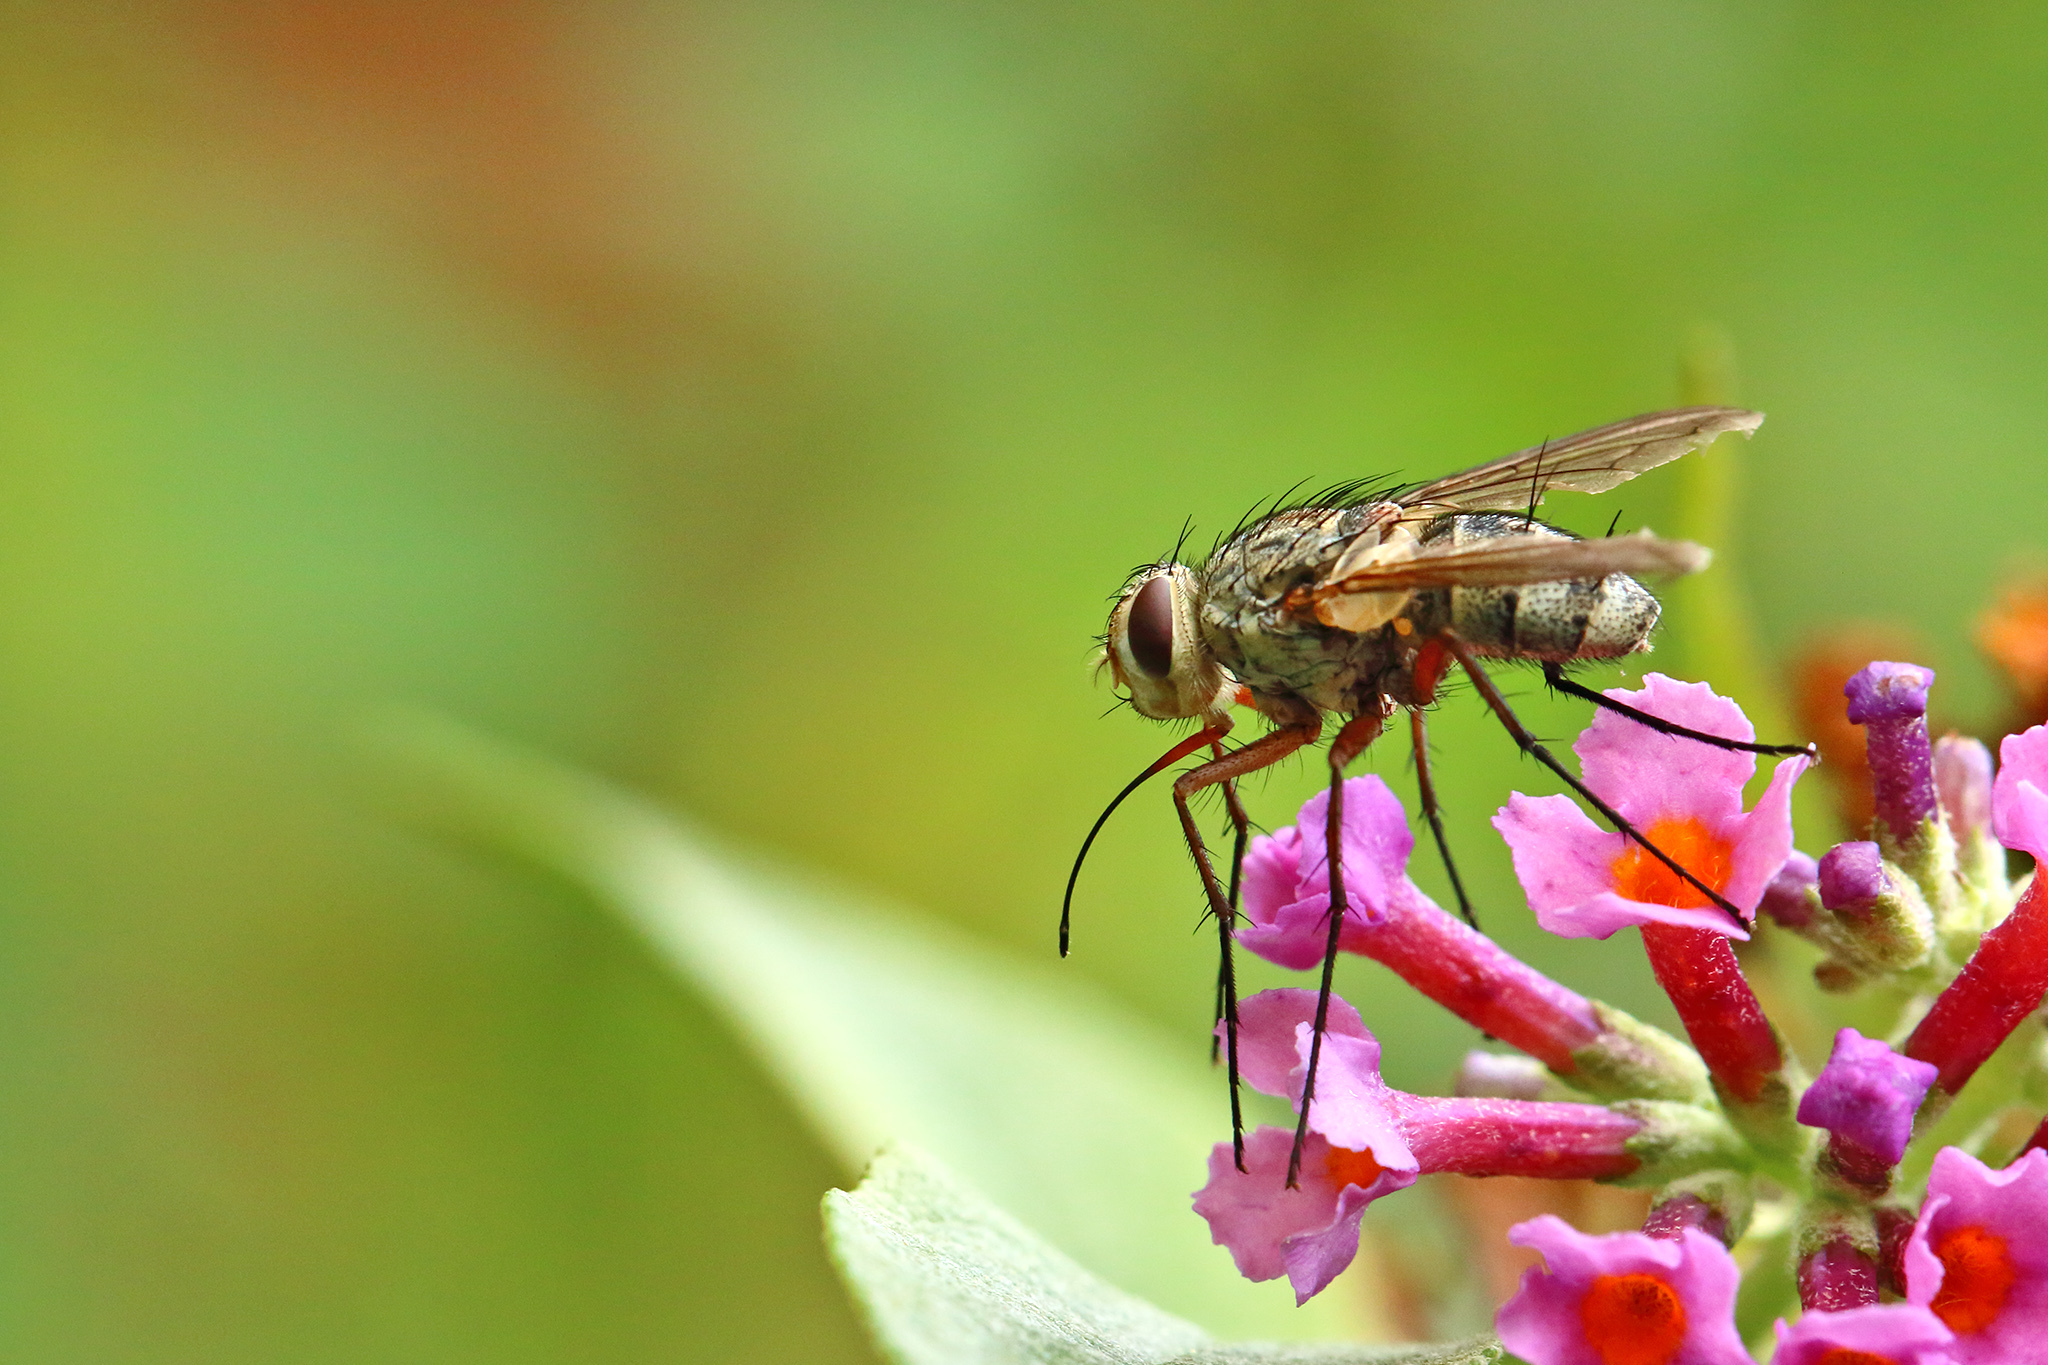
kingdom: Animalia
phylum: Arthropoda
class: Insecta
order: Diptera
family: Tachinidae
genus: Prosena
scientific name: Prosena siberita
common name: Parasitic fly
